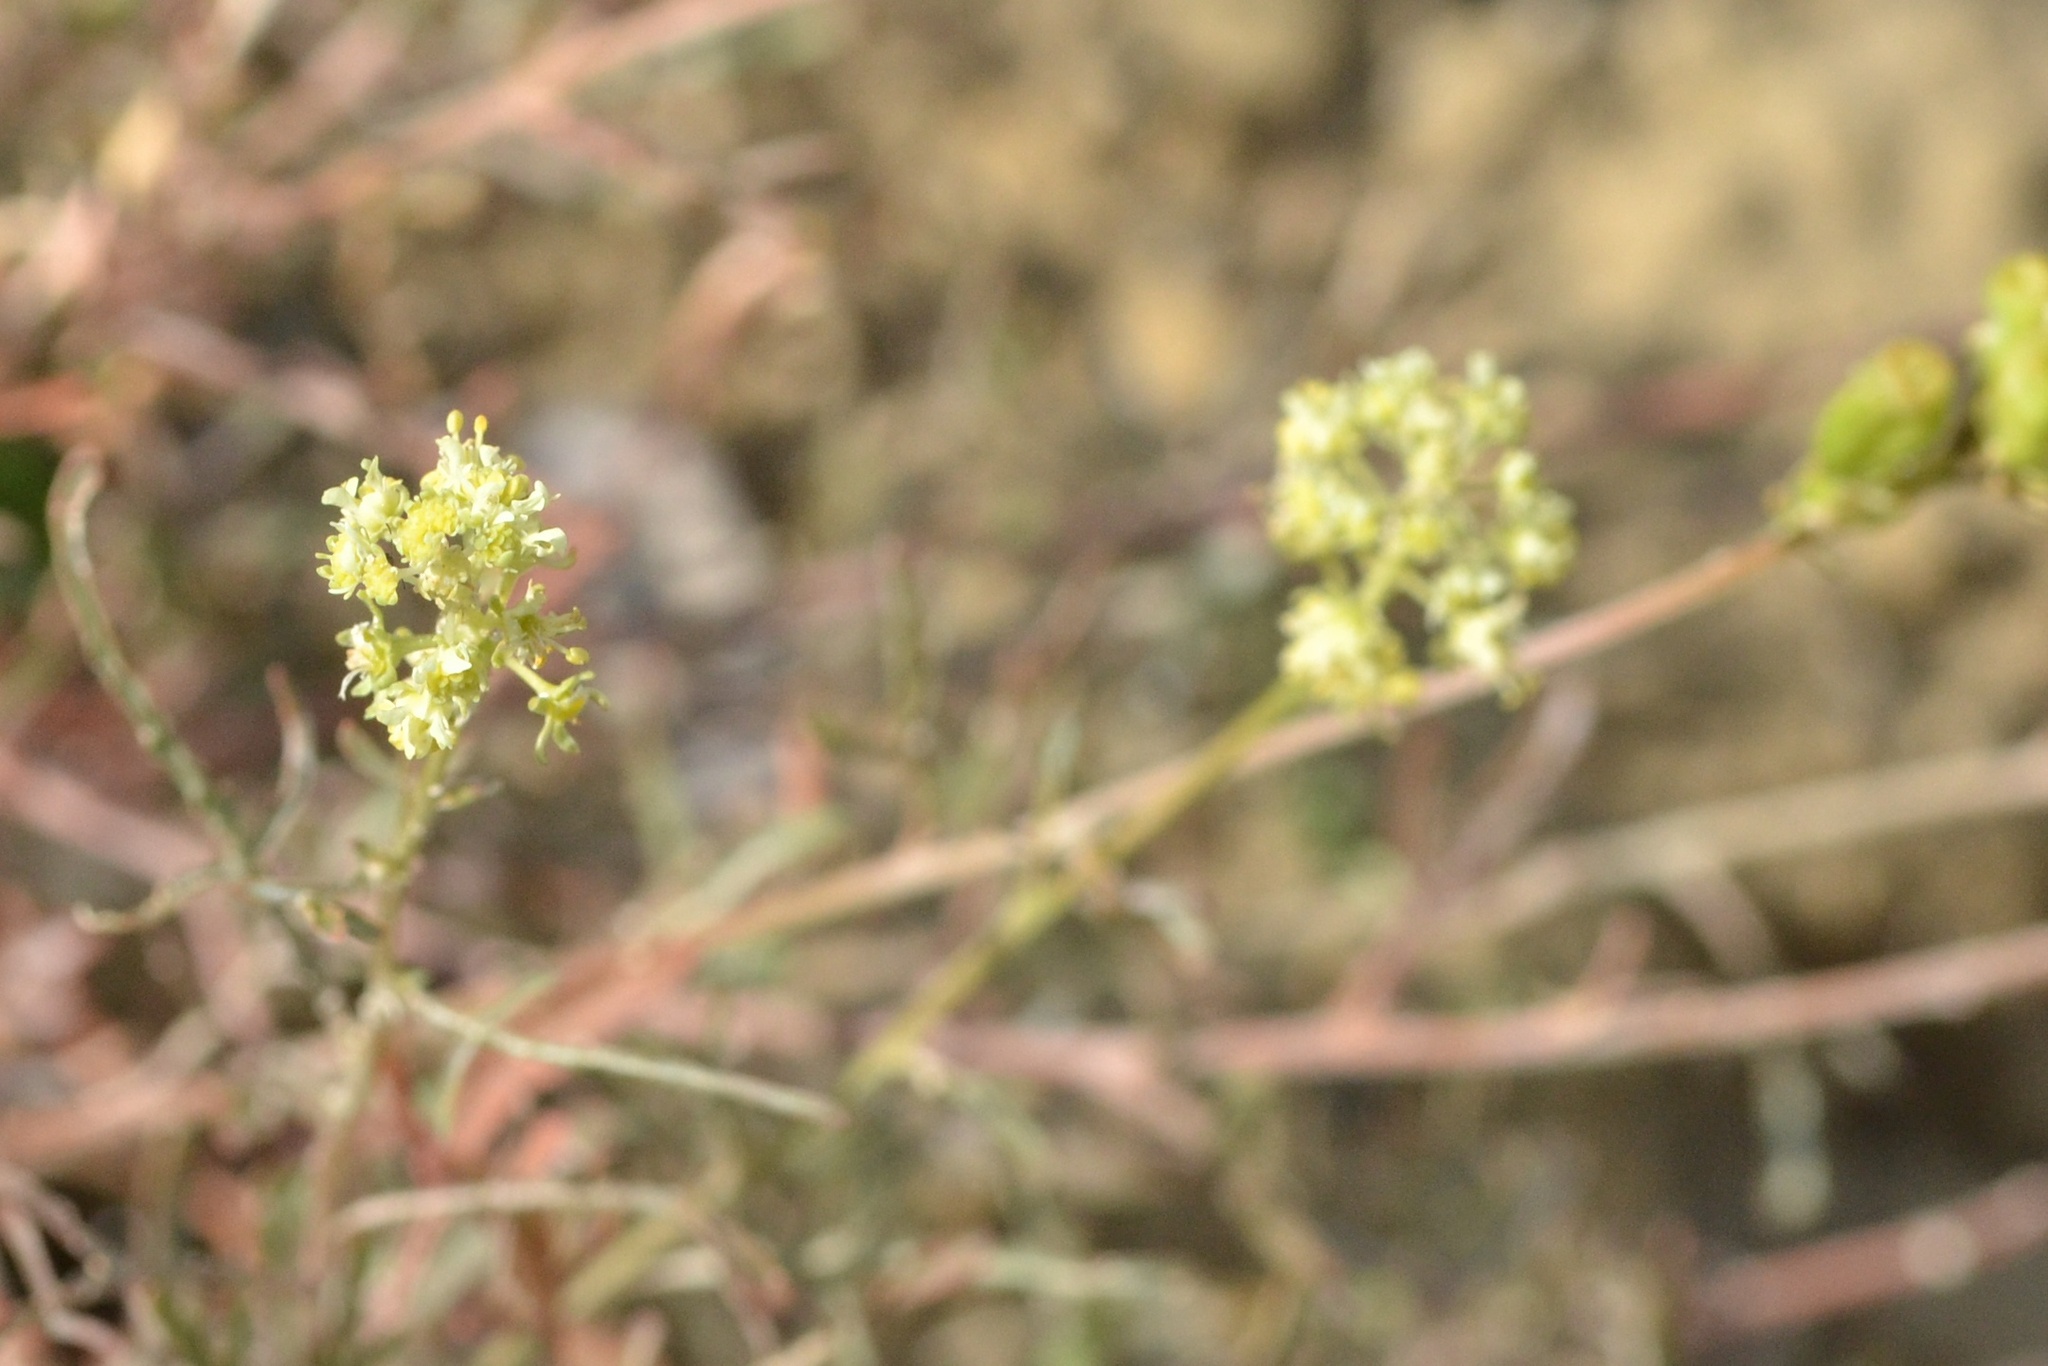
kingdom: Plantae
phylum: Tracheophyta
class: Magnoliopsida
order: Brassicales
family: Resedaceae
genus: Reseda
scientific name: Reseda lutea
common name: Wild mignonette
